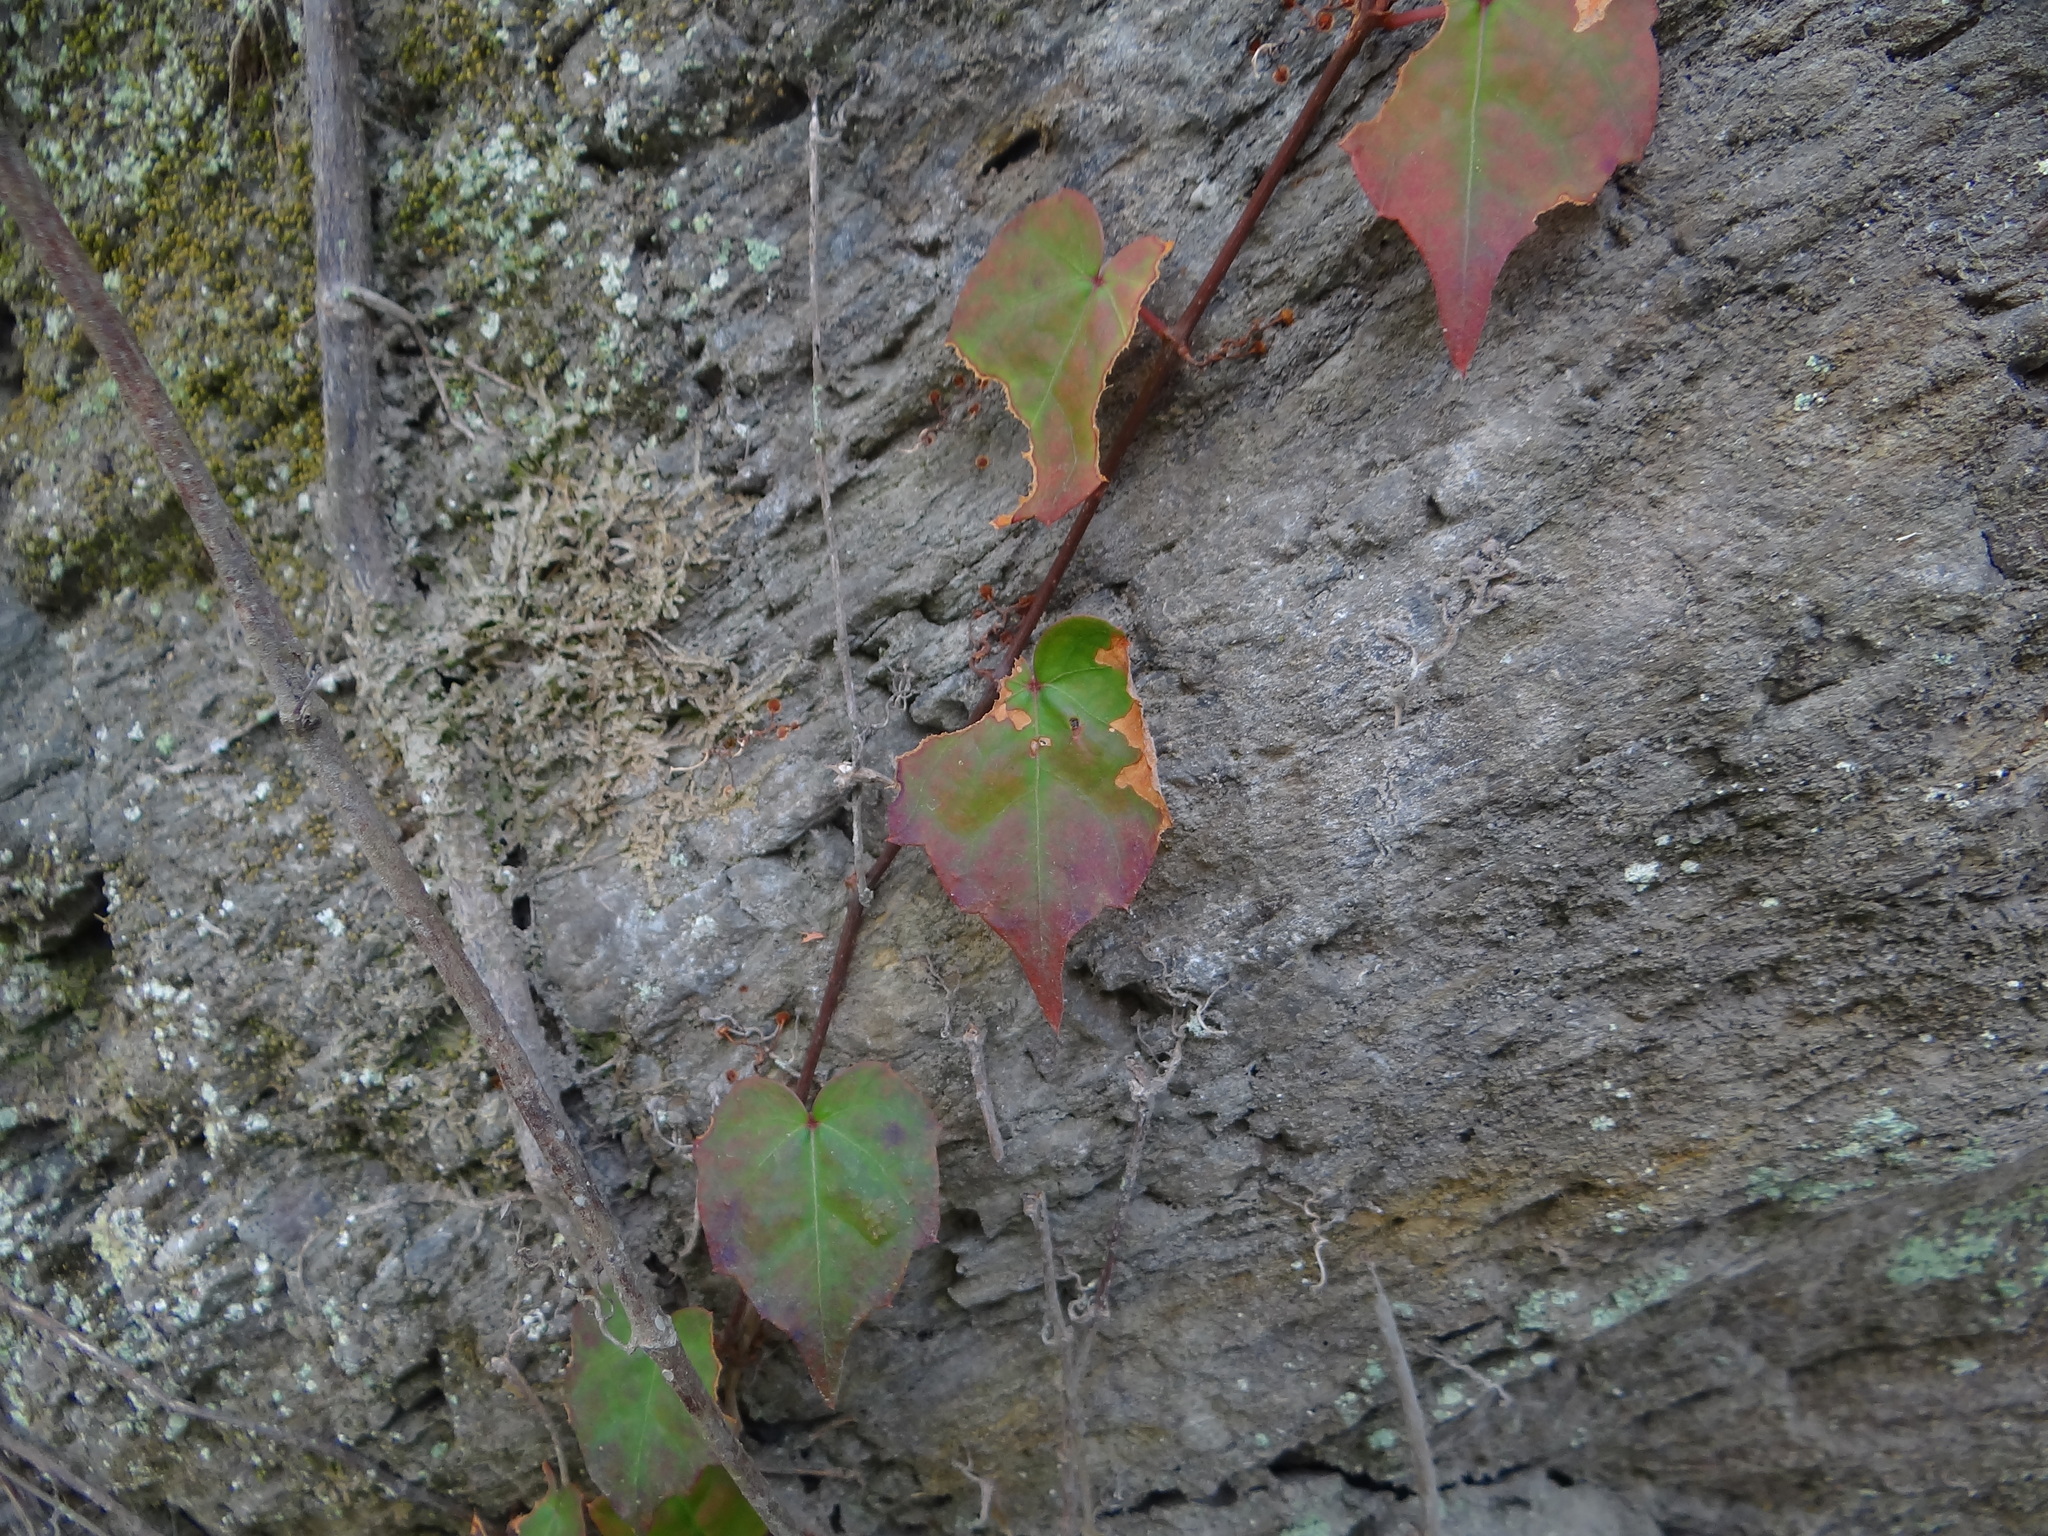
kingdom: Plantae
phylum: Tracheophyta
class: Magnoliopsida
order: Vitales
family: Vitaceae
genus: Parthenocissus
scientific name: Parthenocissus tricuspidata
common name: Boston ivy
